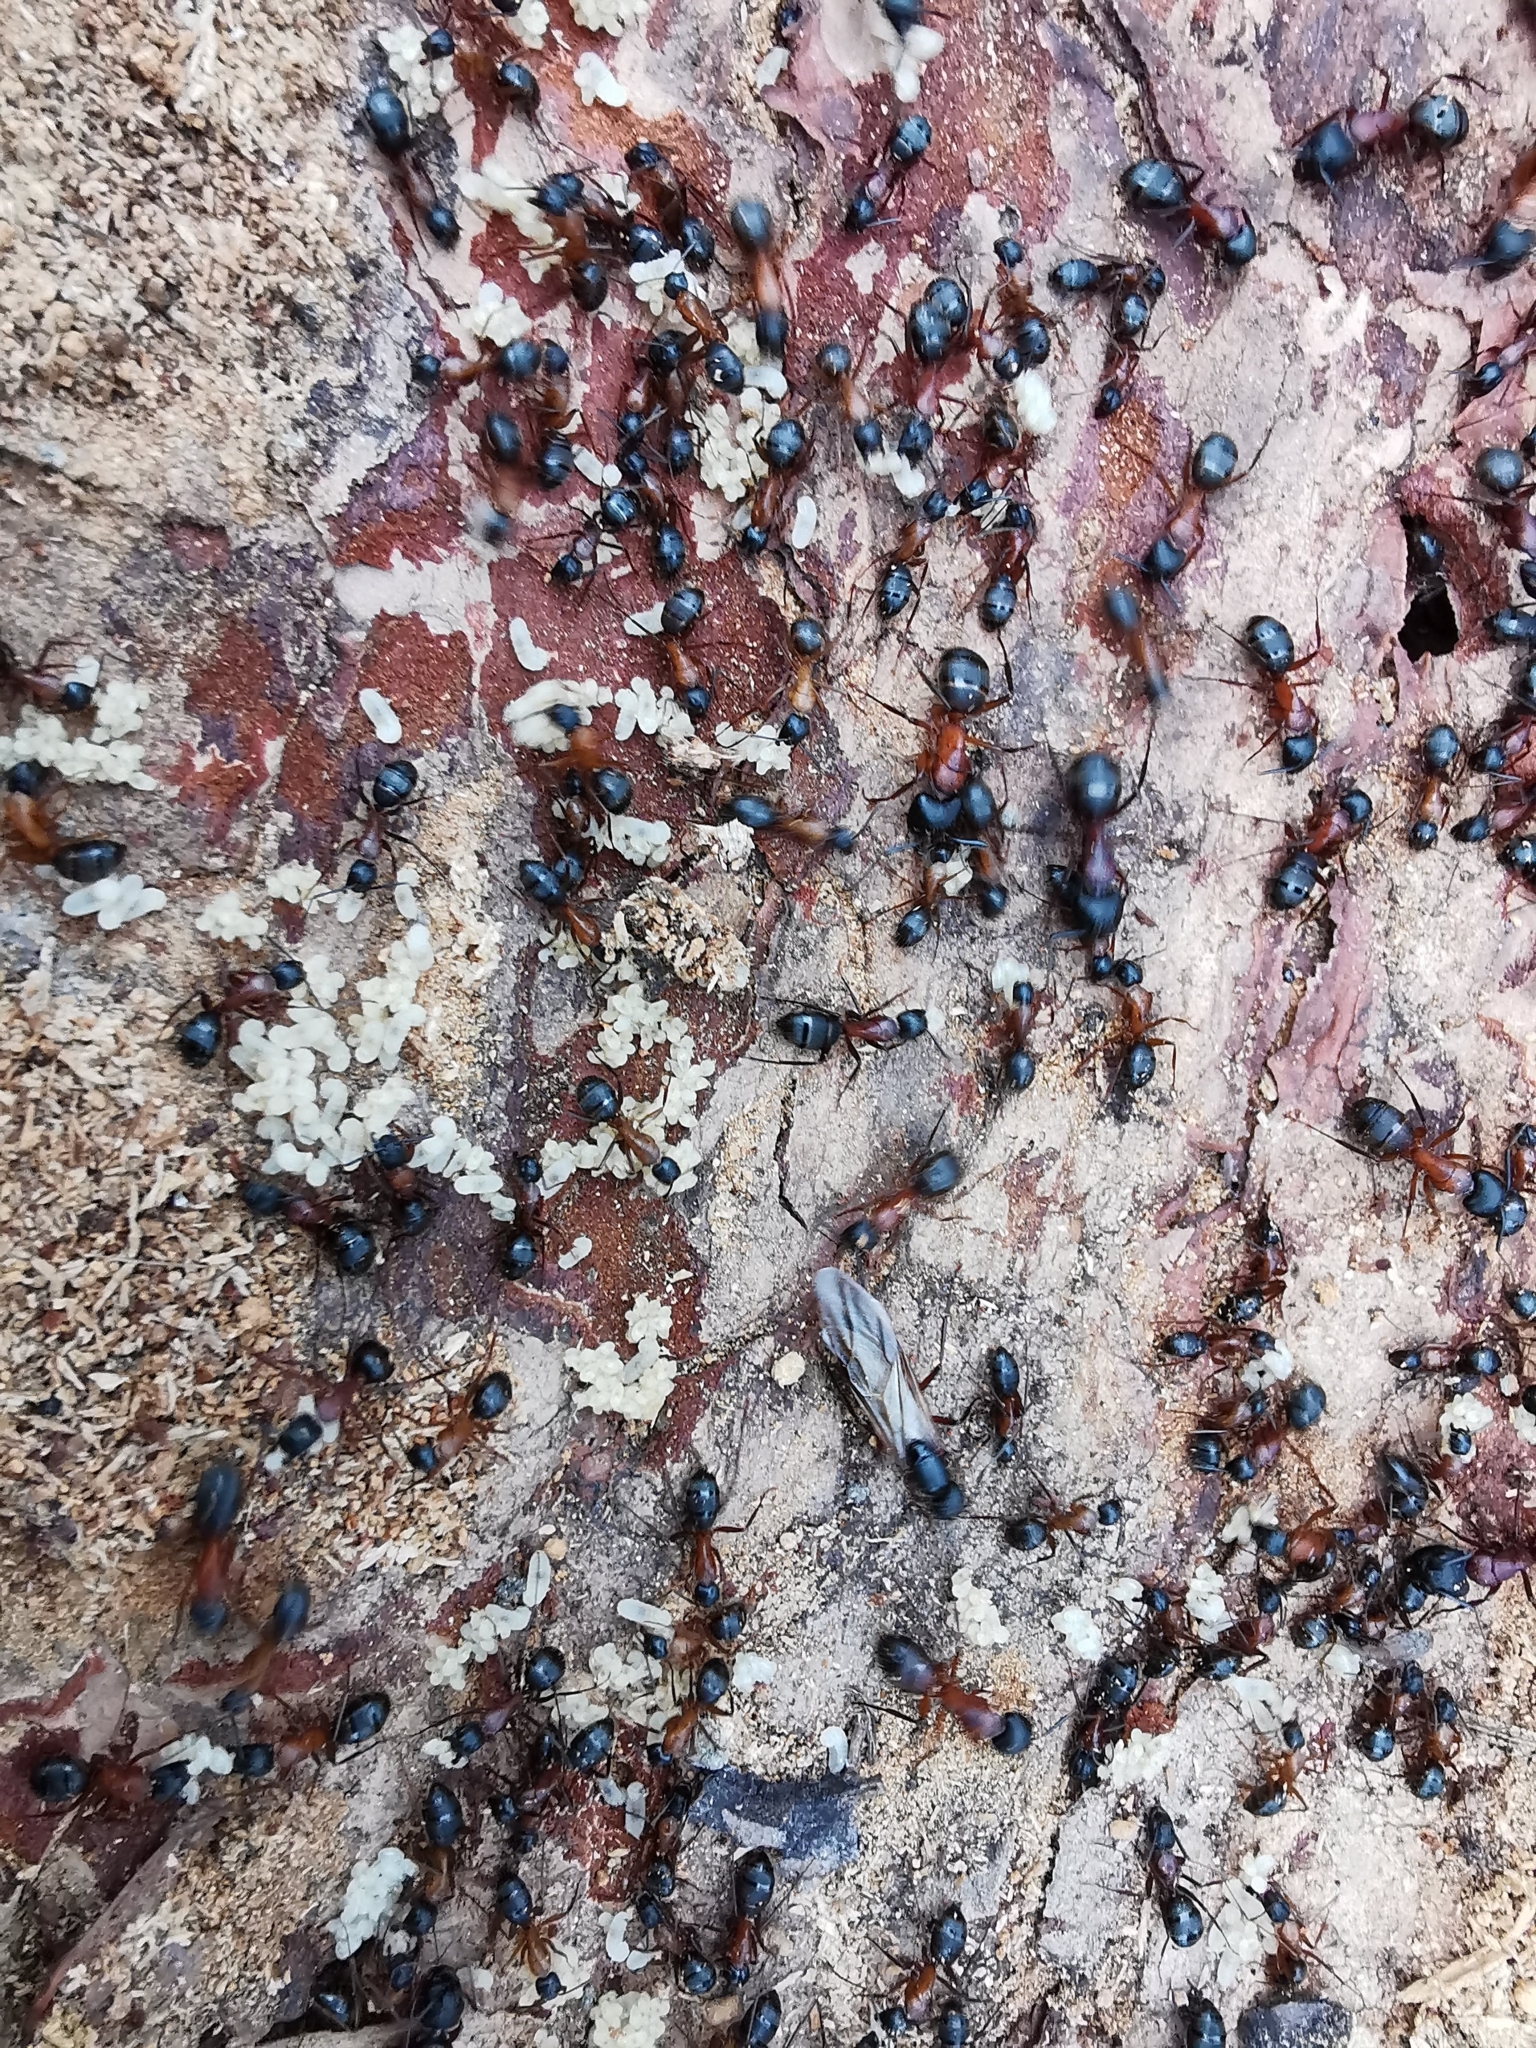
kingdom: Animalia
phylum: Arthropoda
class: Insecta
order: Hymenoptera
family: Formicidae
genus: Camponotus
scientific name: Camponotus vicinus
